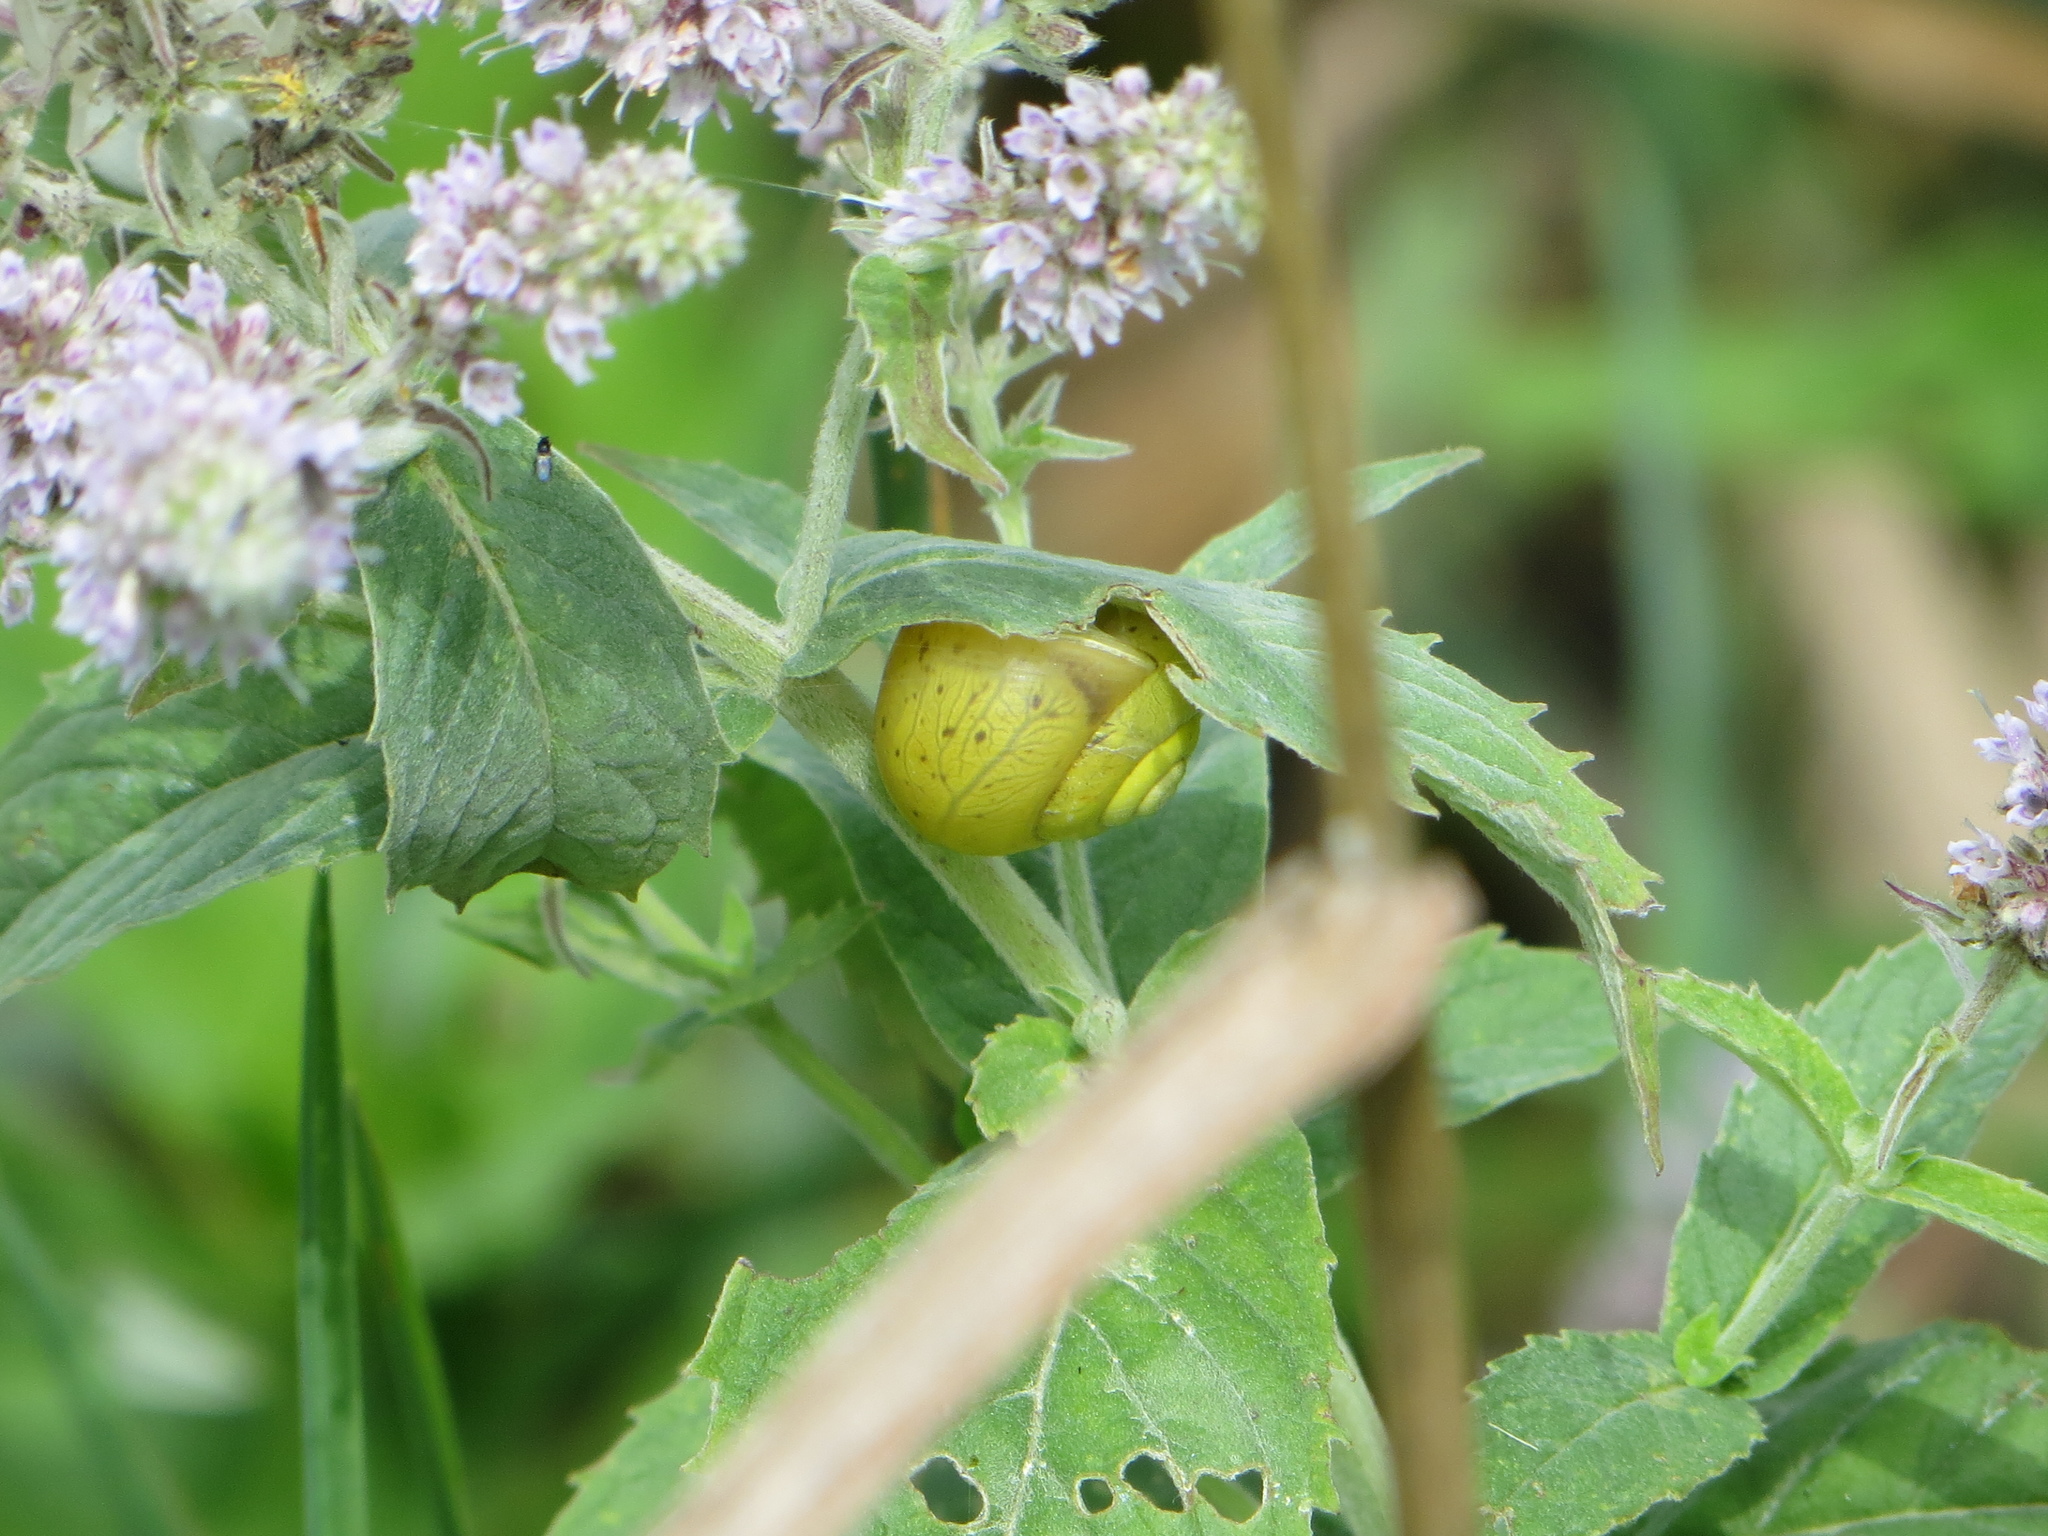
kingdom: Animalia
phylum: Mollusca
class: Gastropoda
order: Stylommatophora
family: Camaenidae
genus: Fruticicola
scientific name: Fruticicola fruticum
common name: Bush snail
